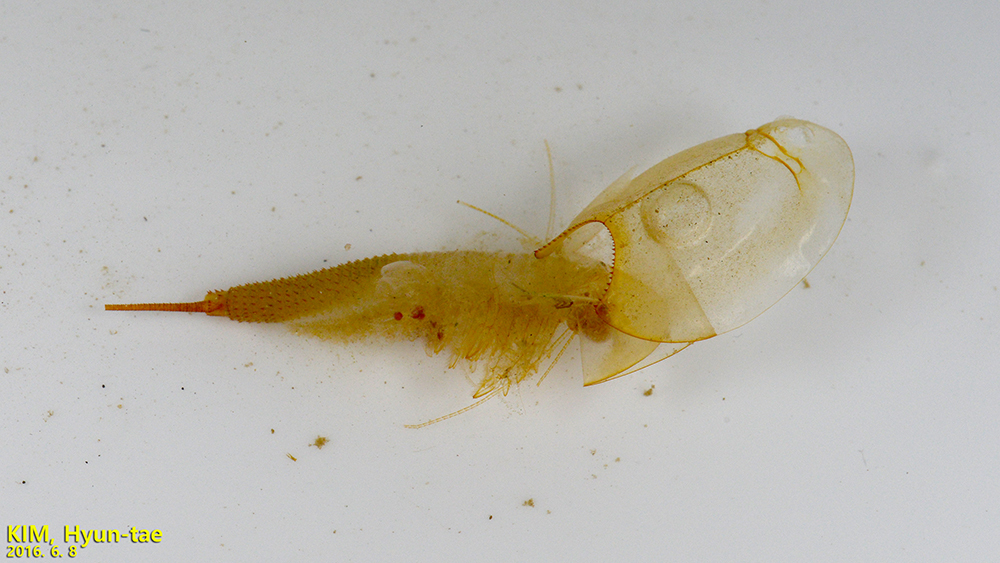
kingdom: Animalia
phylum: Arthropoda
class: Branchiopoda
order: Notostraca
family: Triopsidae
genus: Triops
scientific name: Triops longicaudatus
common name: Summer tadpole shrimp
